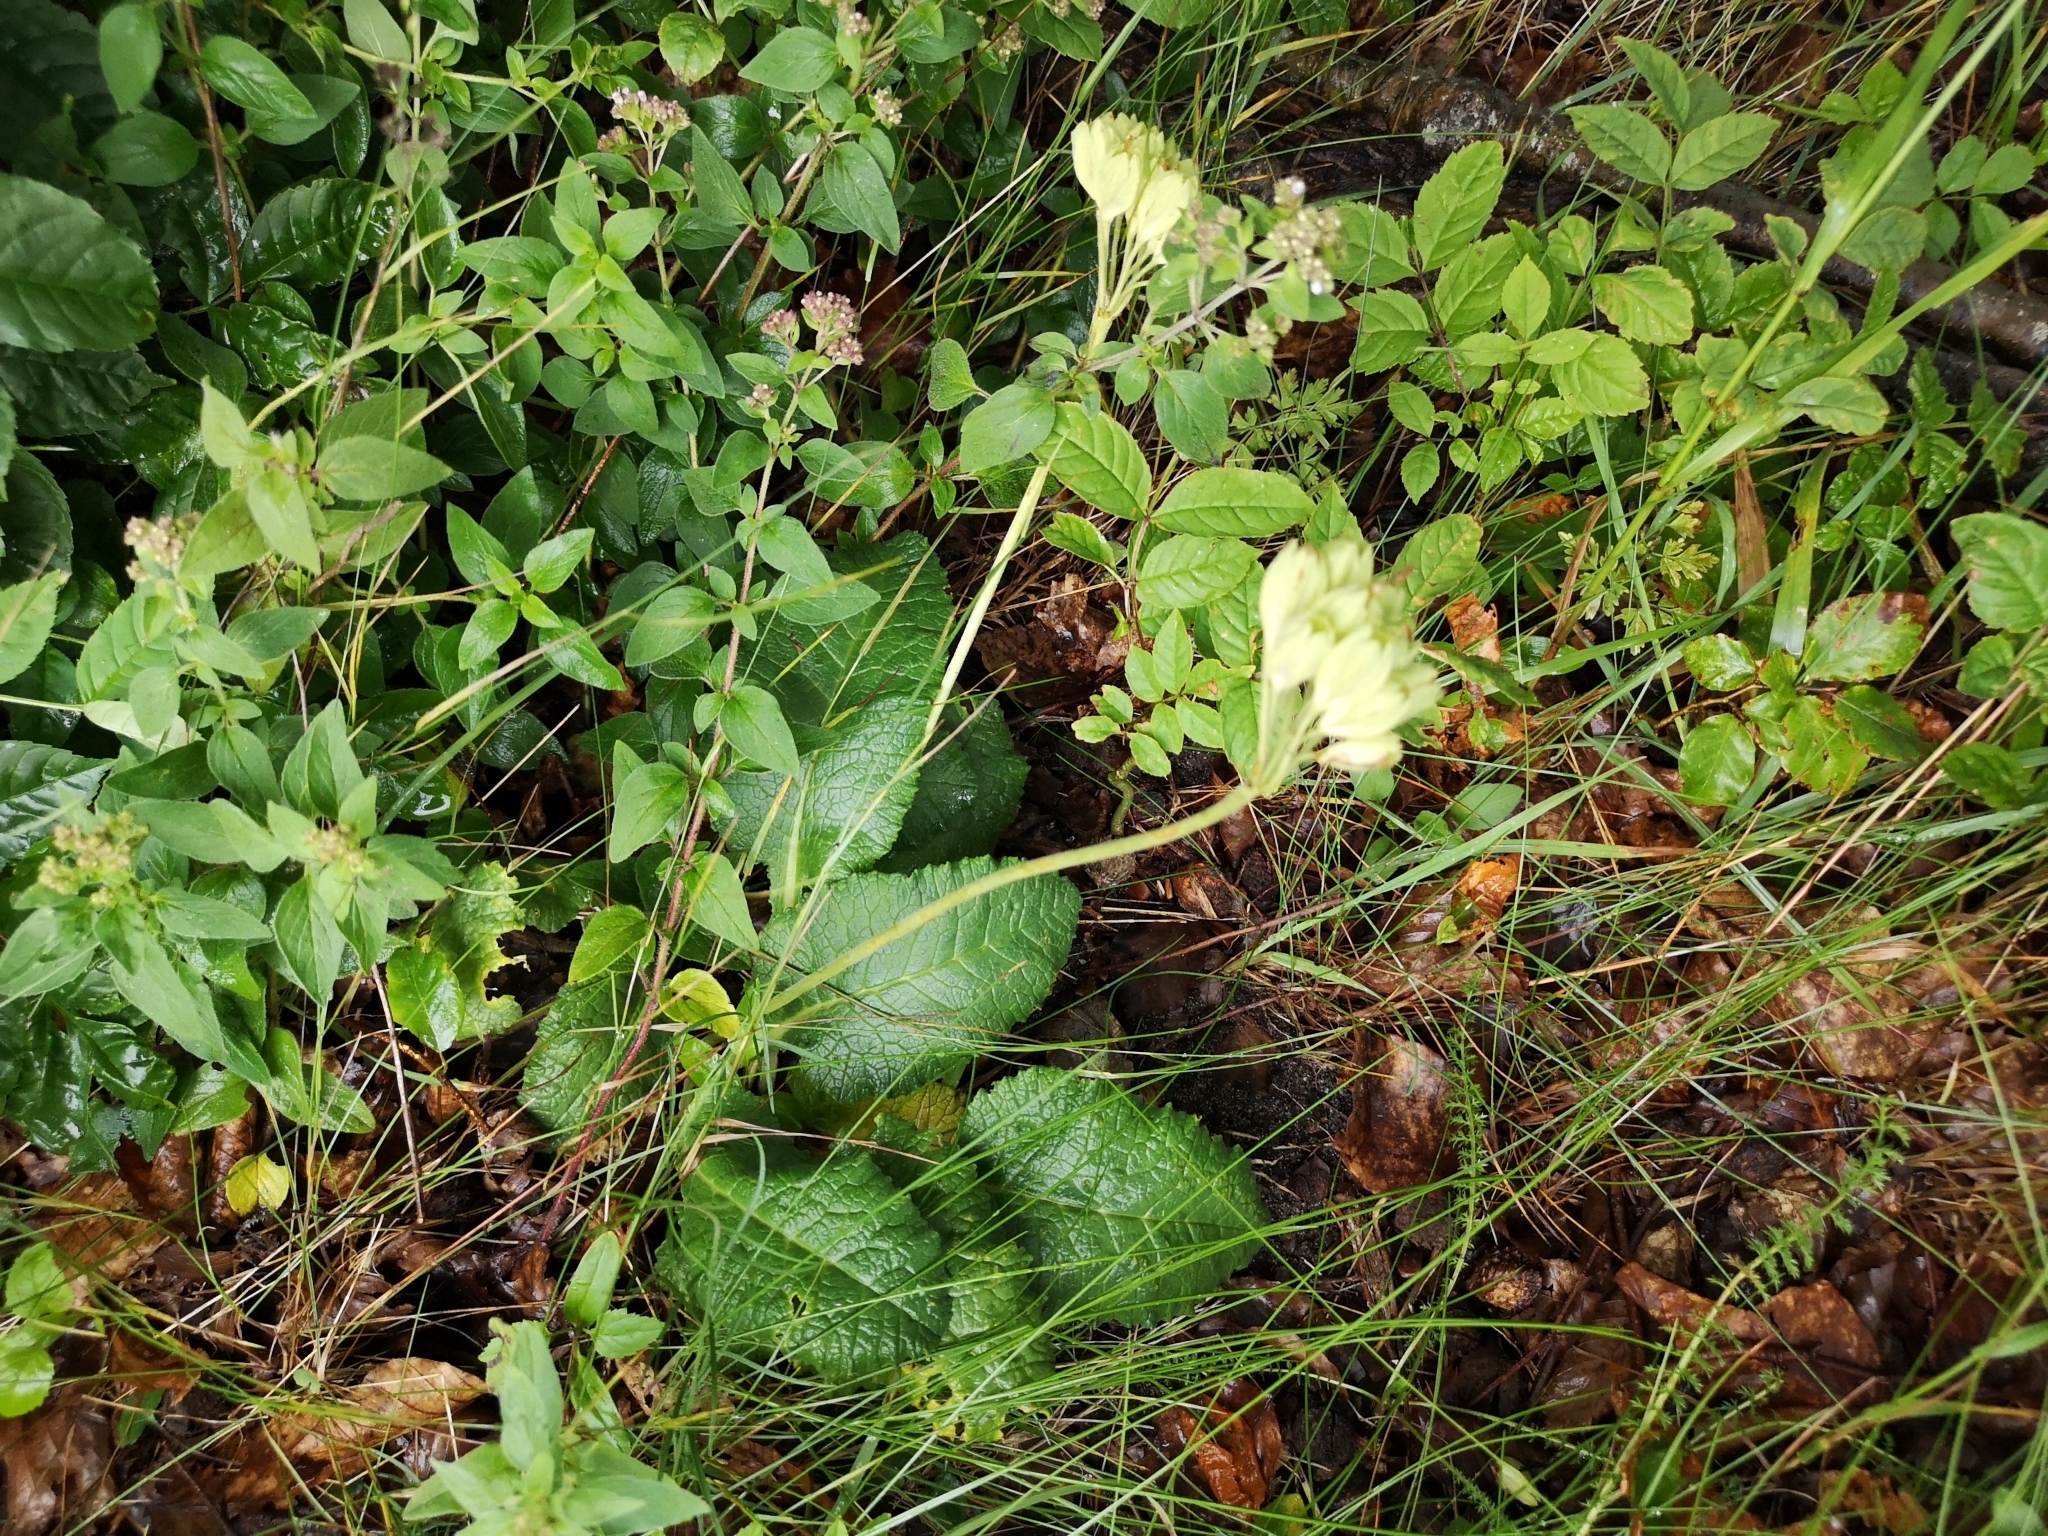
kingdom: Plantae
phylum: Tracheophyta
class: Magnoliopsida
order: Ericales
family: Primulaceae
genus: Primula
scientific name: Primula veris
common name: Cowslip
